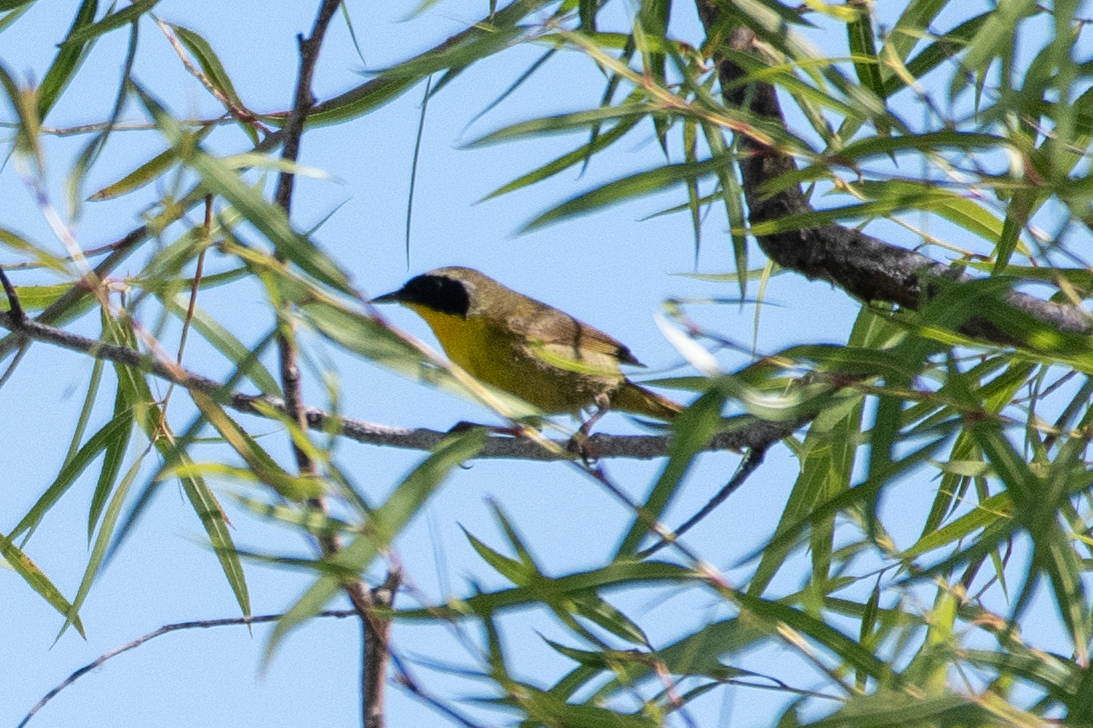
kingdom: Animalia
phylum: Chordata
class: Aves
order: Passeriformes
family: Parulidae
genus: Geothlypis
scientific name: Geothlypis trichas
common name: Common yellowthroat
